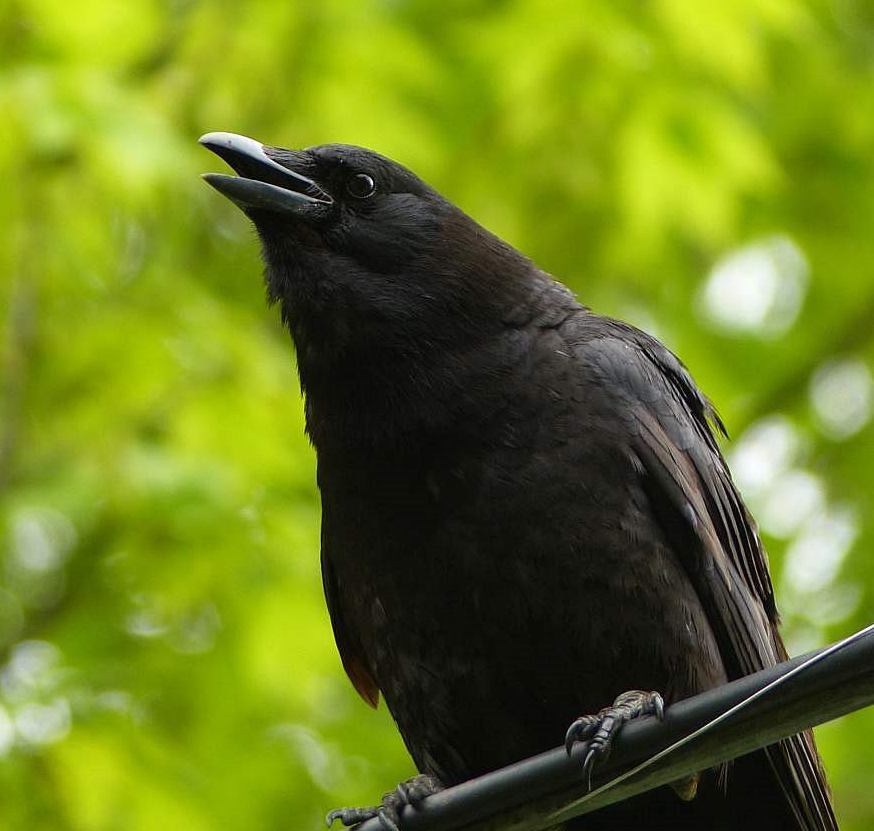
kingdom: Animalia
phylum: Chordata
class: Aves
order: Passeriformes
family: Corvidae
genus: Corvus
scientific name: Corvus brachyrhynchos
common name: American crow
